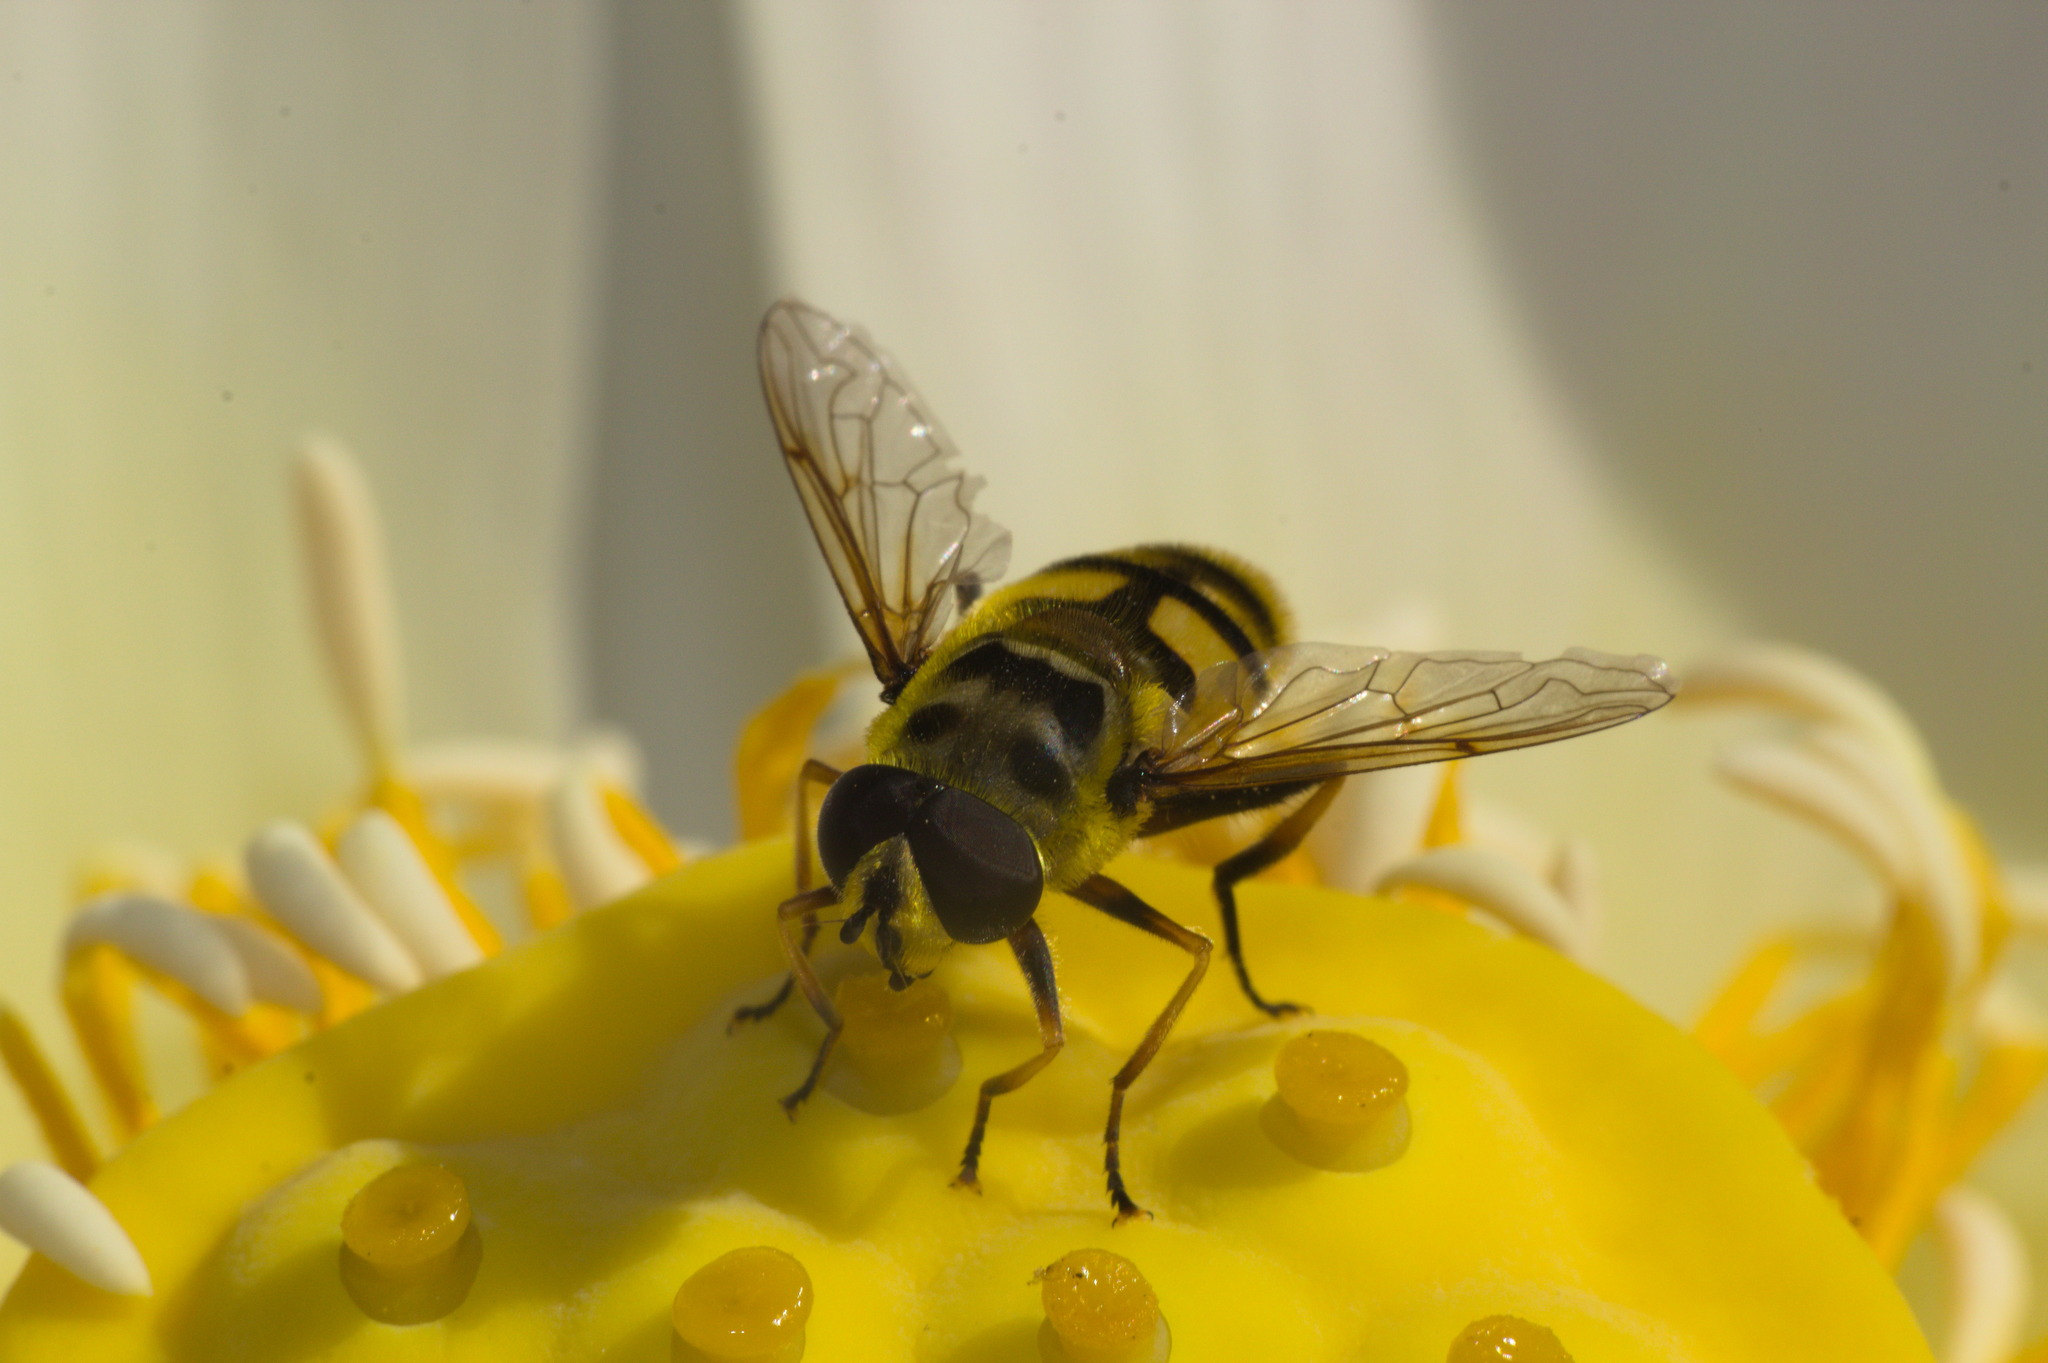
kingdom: Animalia
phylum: Arthropoda
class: Insecta
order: Diptera
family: Syrphidae
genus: Myathropa
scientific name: Myathropa florea
